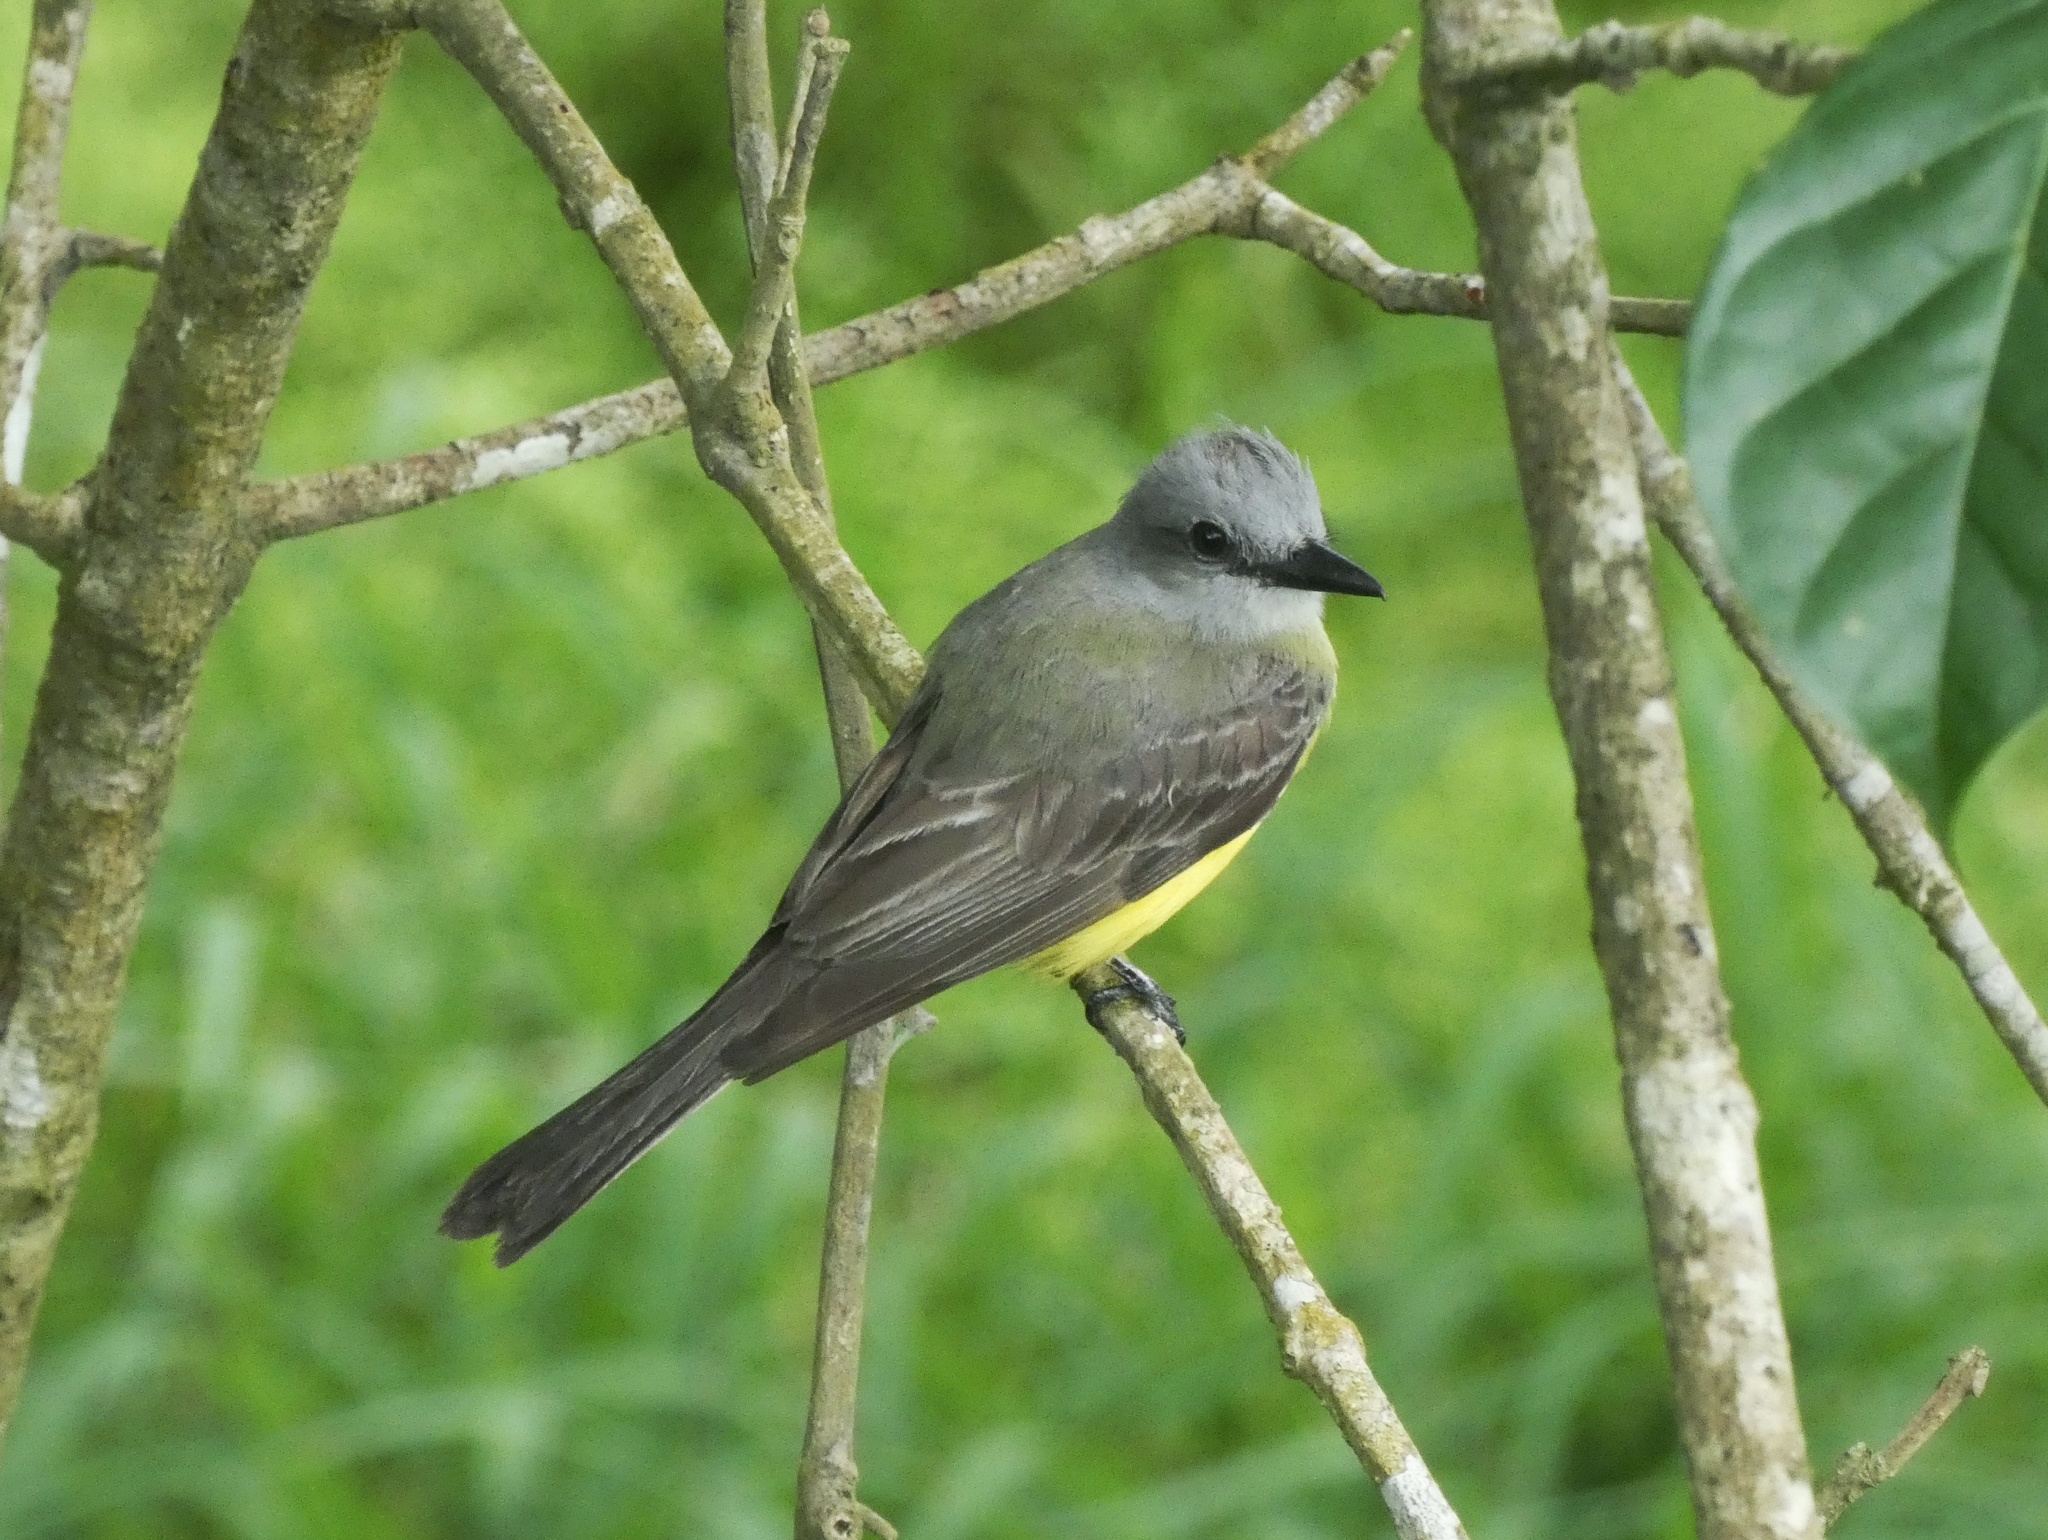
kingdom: Animalia
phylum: Chordata
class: Aves
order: Passeriformes
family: Tyrannidae
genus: Tyrannus
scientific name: Tyrannus melancholicus
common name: Tropical kingbird
